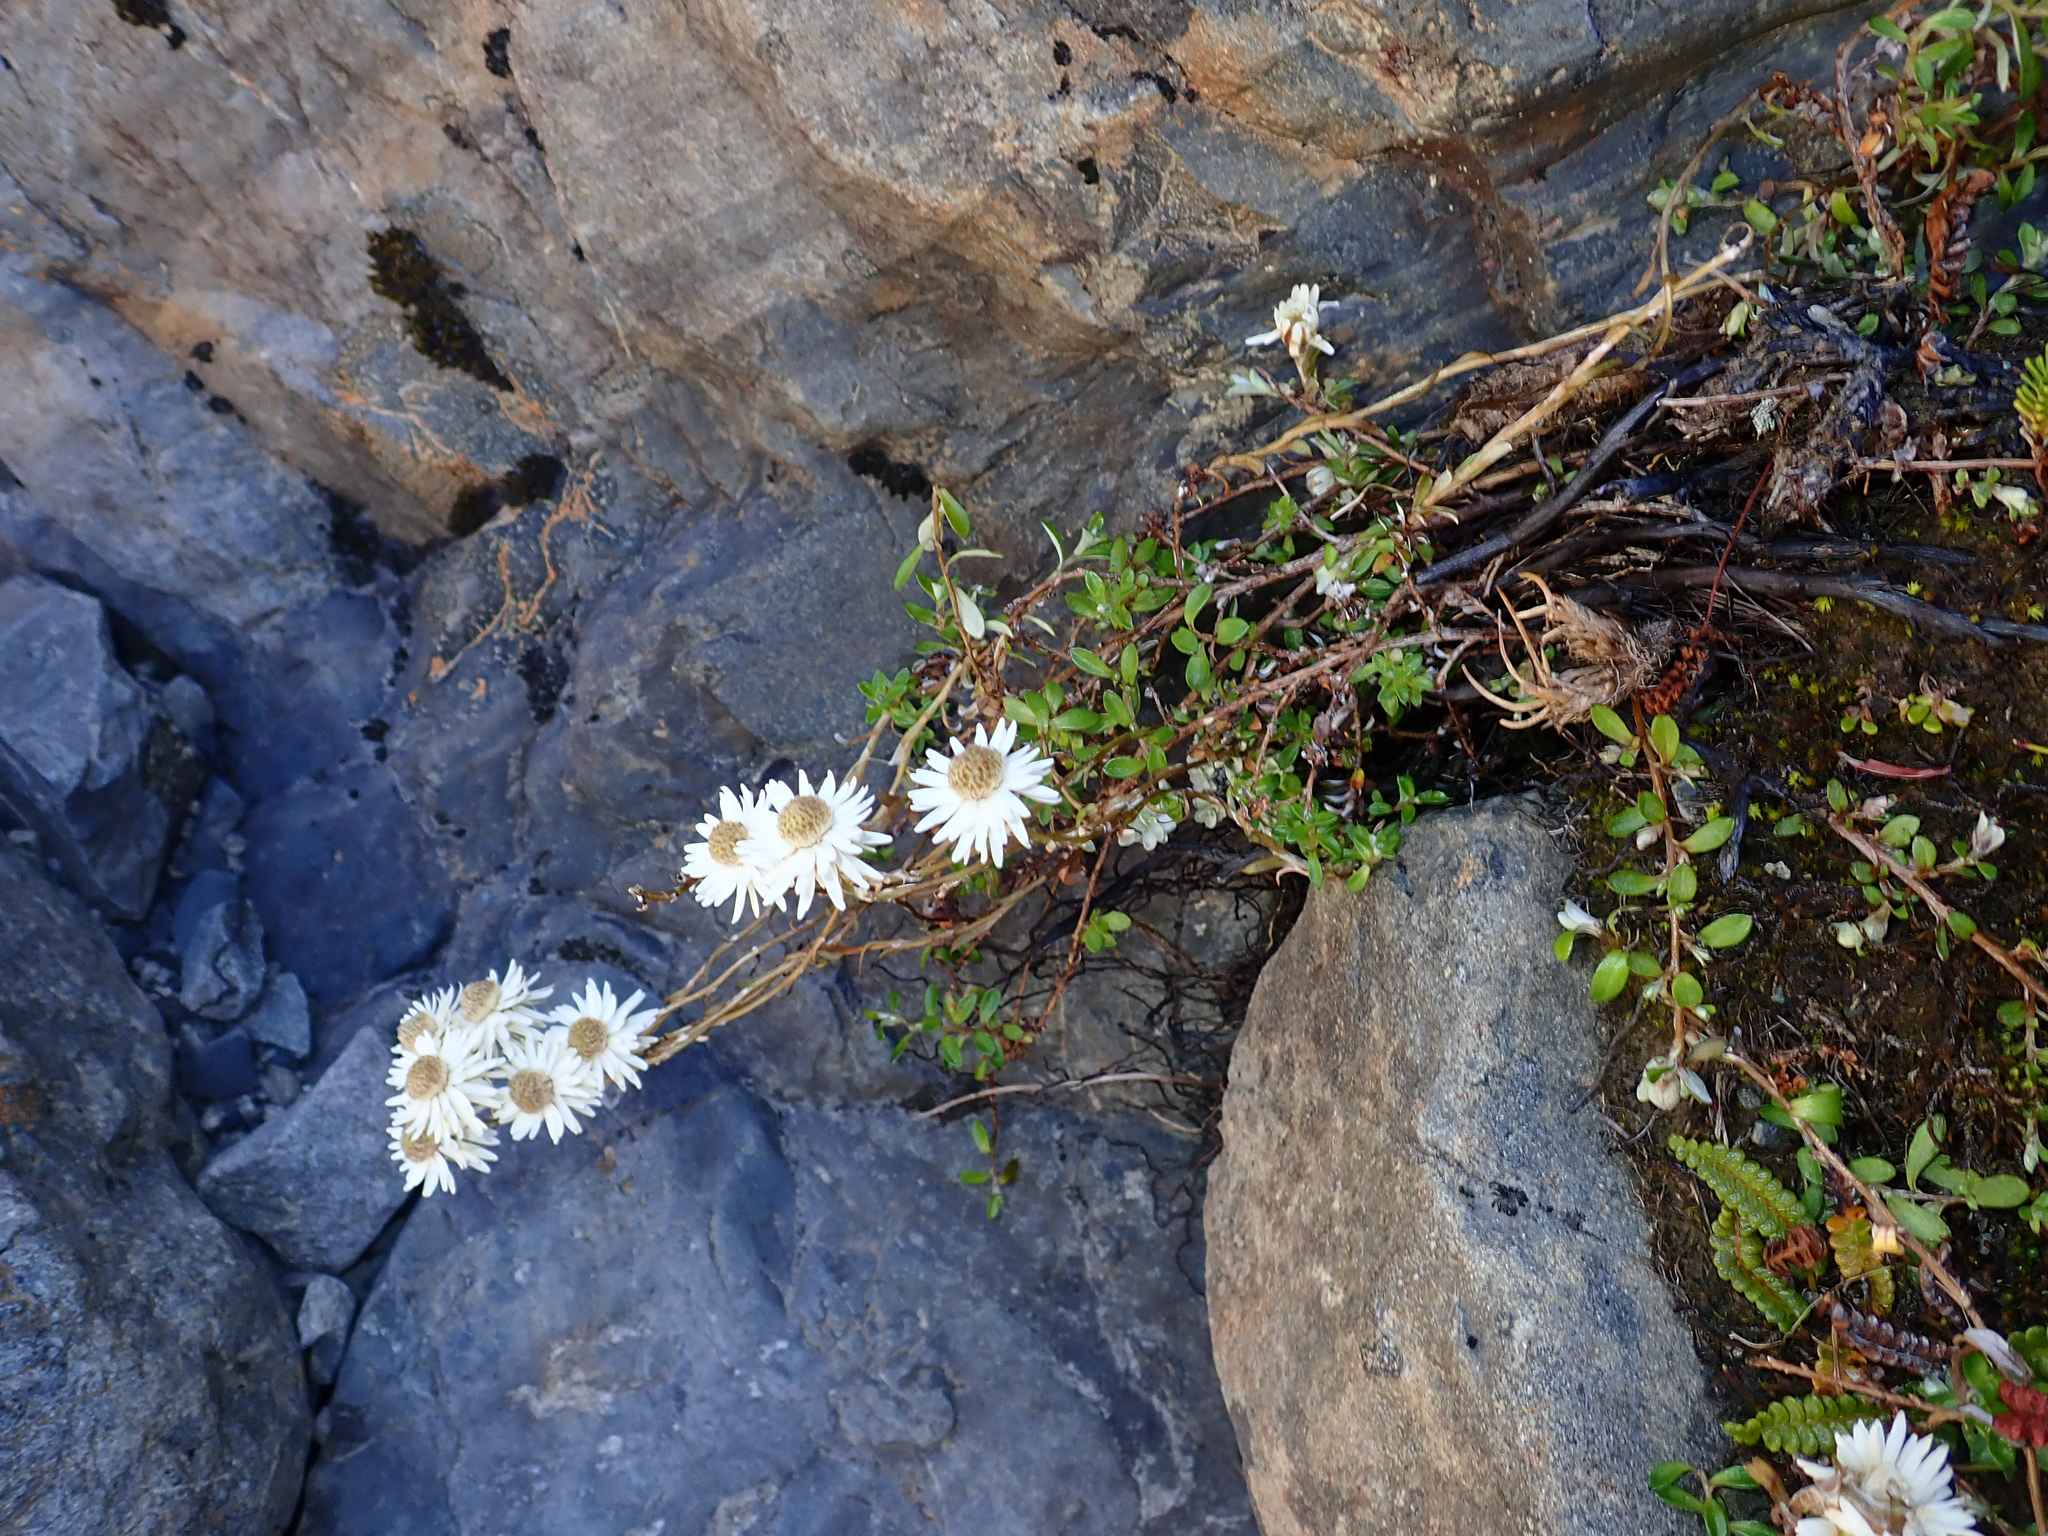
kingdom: Plantae
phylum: Tracheophyta
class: Magnoliopsida
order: Asterales
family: Asteraceae
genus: Anaphalioides
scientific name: Anaphalioides bellidioides
